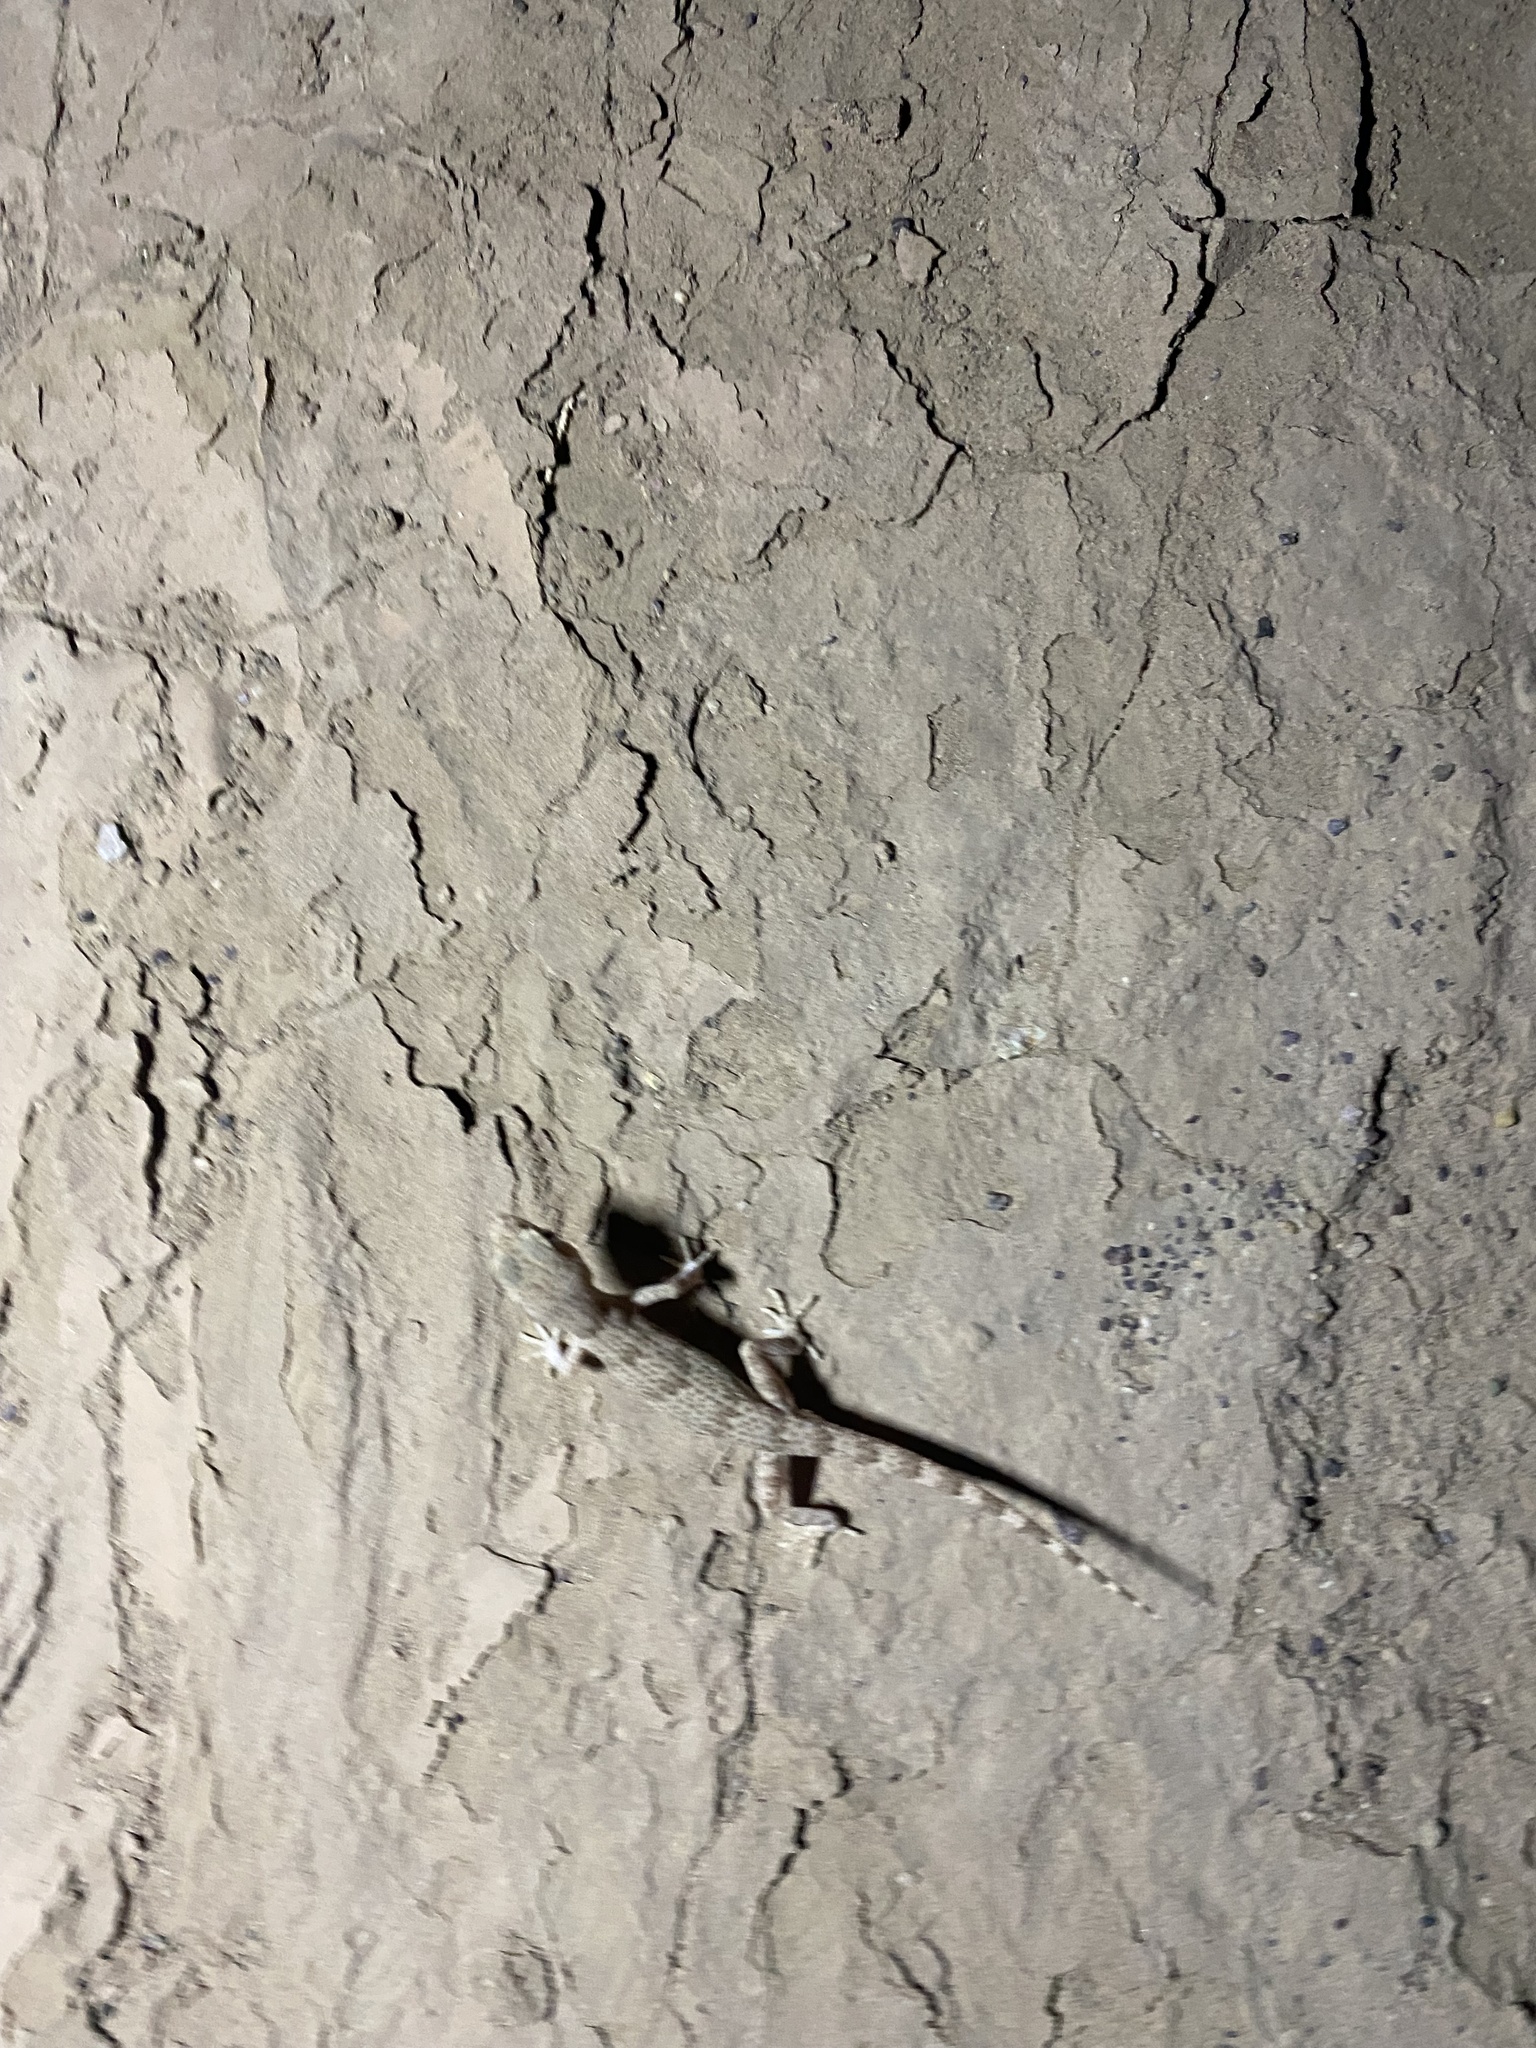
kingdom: Animalia
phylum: Chordata
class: Squamata
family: Gekkonidae
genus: Bunopus
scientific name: Bunopus crassicauda
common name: Thick-tailed tuberculated gecko
